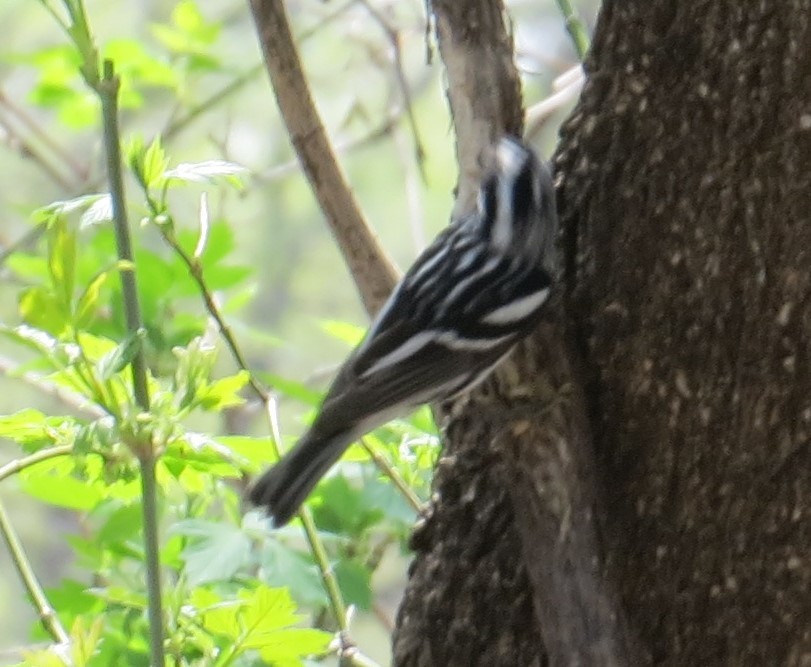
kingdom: Animalia
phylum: Chordata
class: Aves
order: Passeriformes
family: Parulidae
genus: Mniotilta
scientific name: Mniotilta varia
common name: Black-and-white warbler
